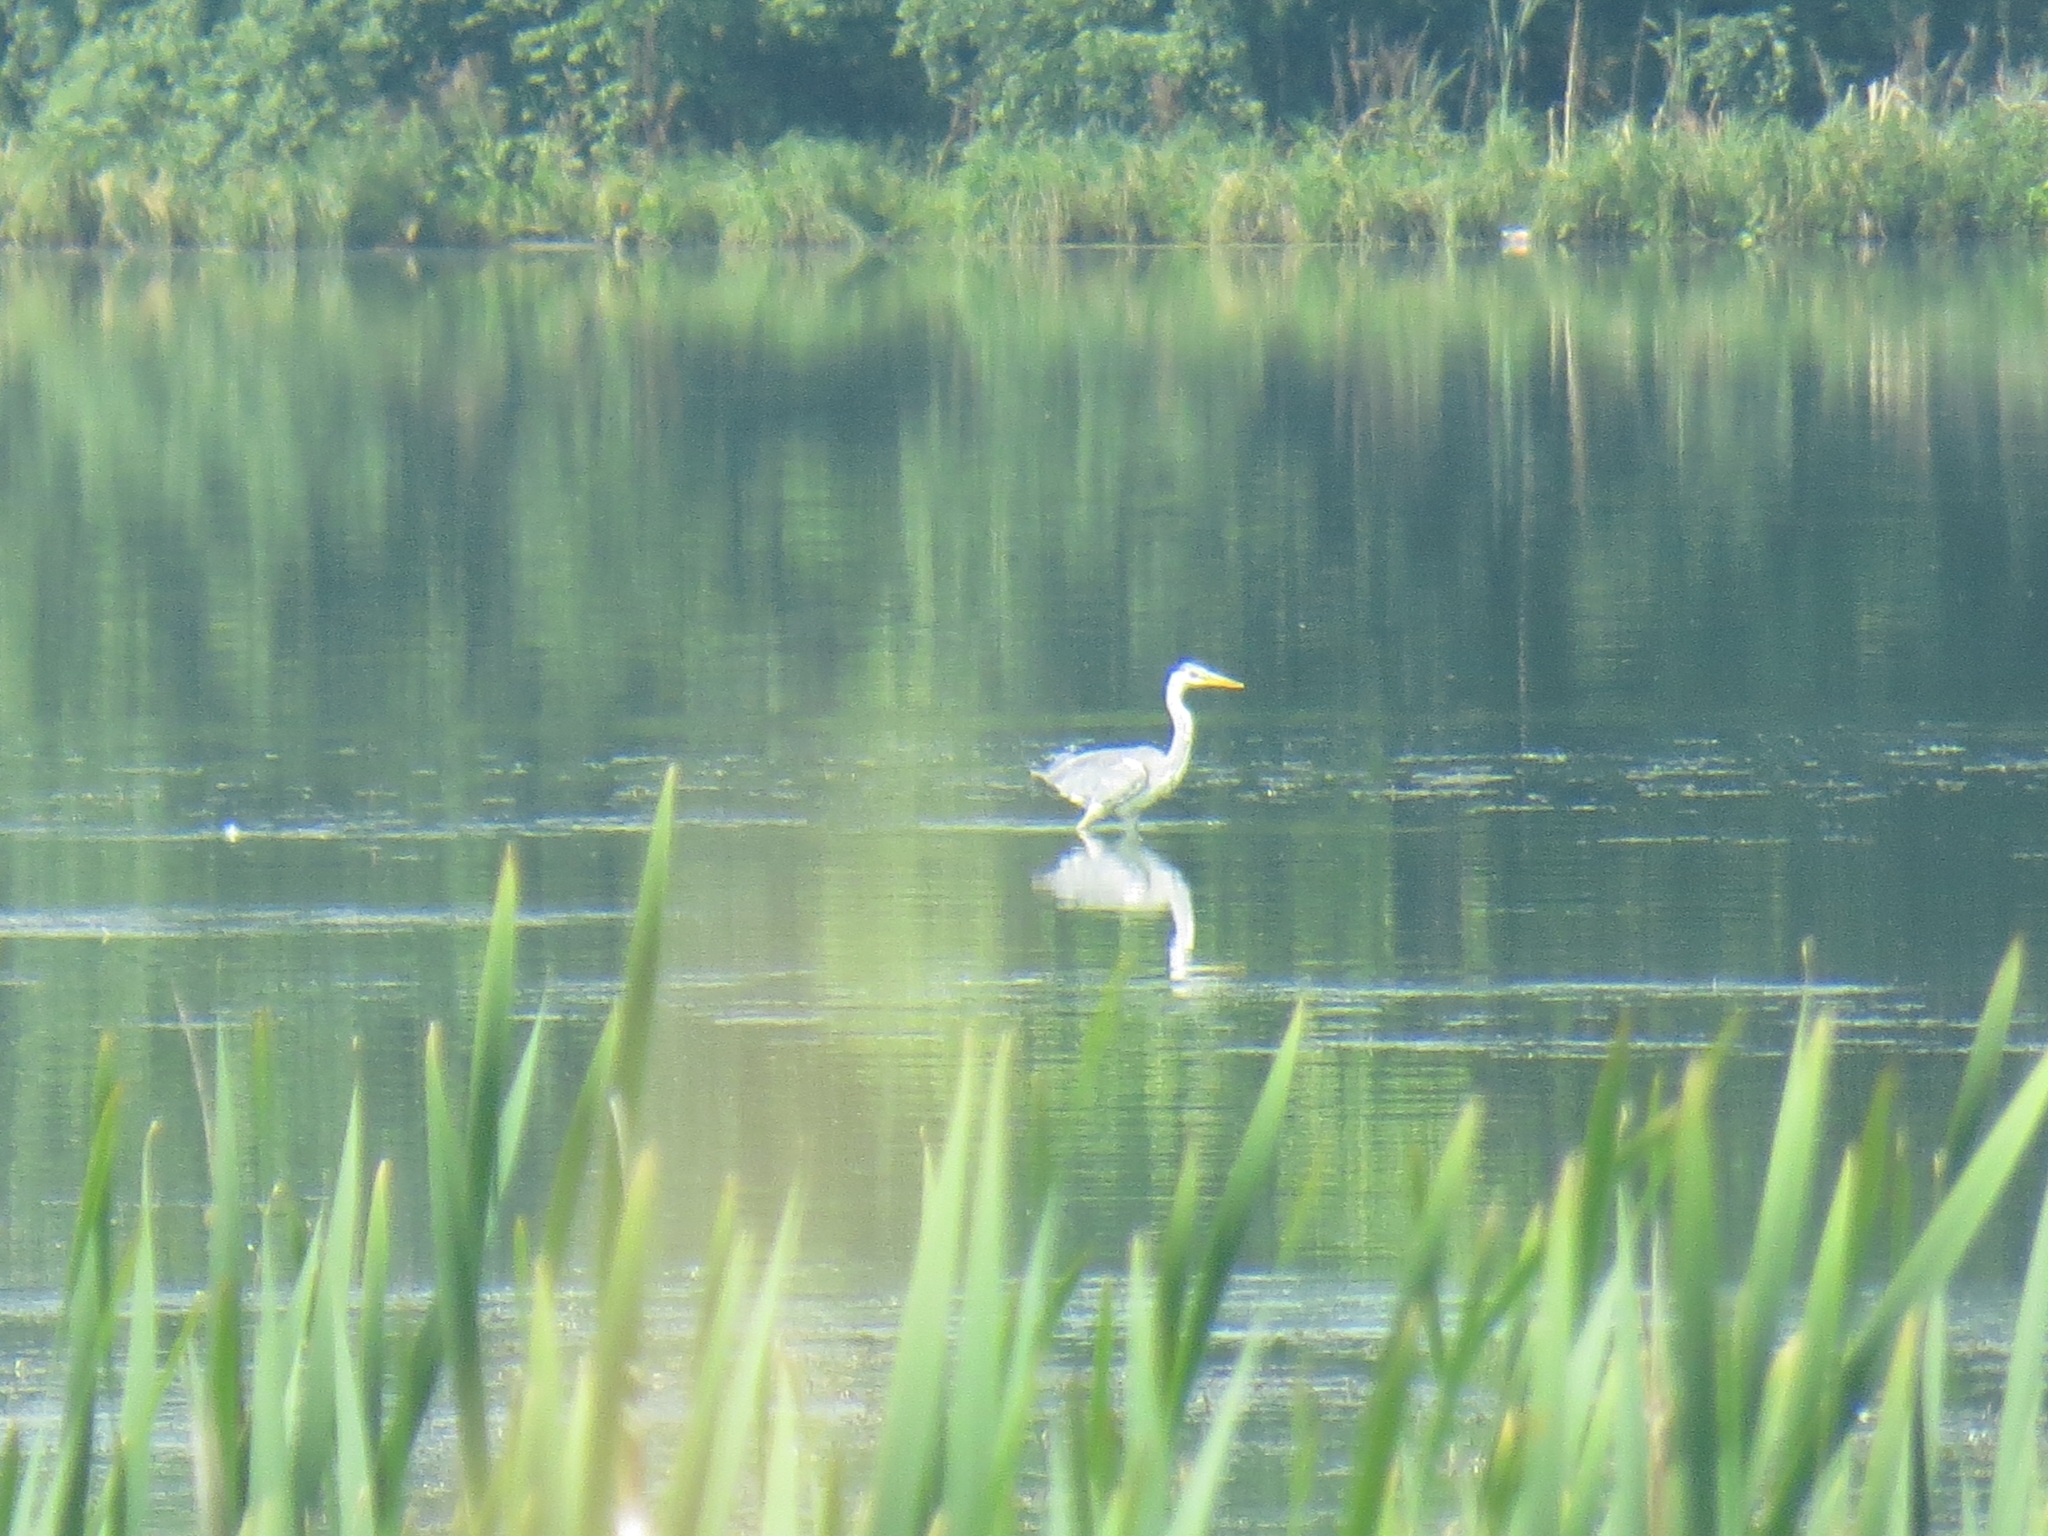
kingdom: Animalia
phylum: Chordata
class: Aves
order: Pelecaniformes
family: Ardeidae
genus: Ardea
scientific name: Ardea cinerea
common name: Grey heron
